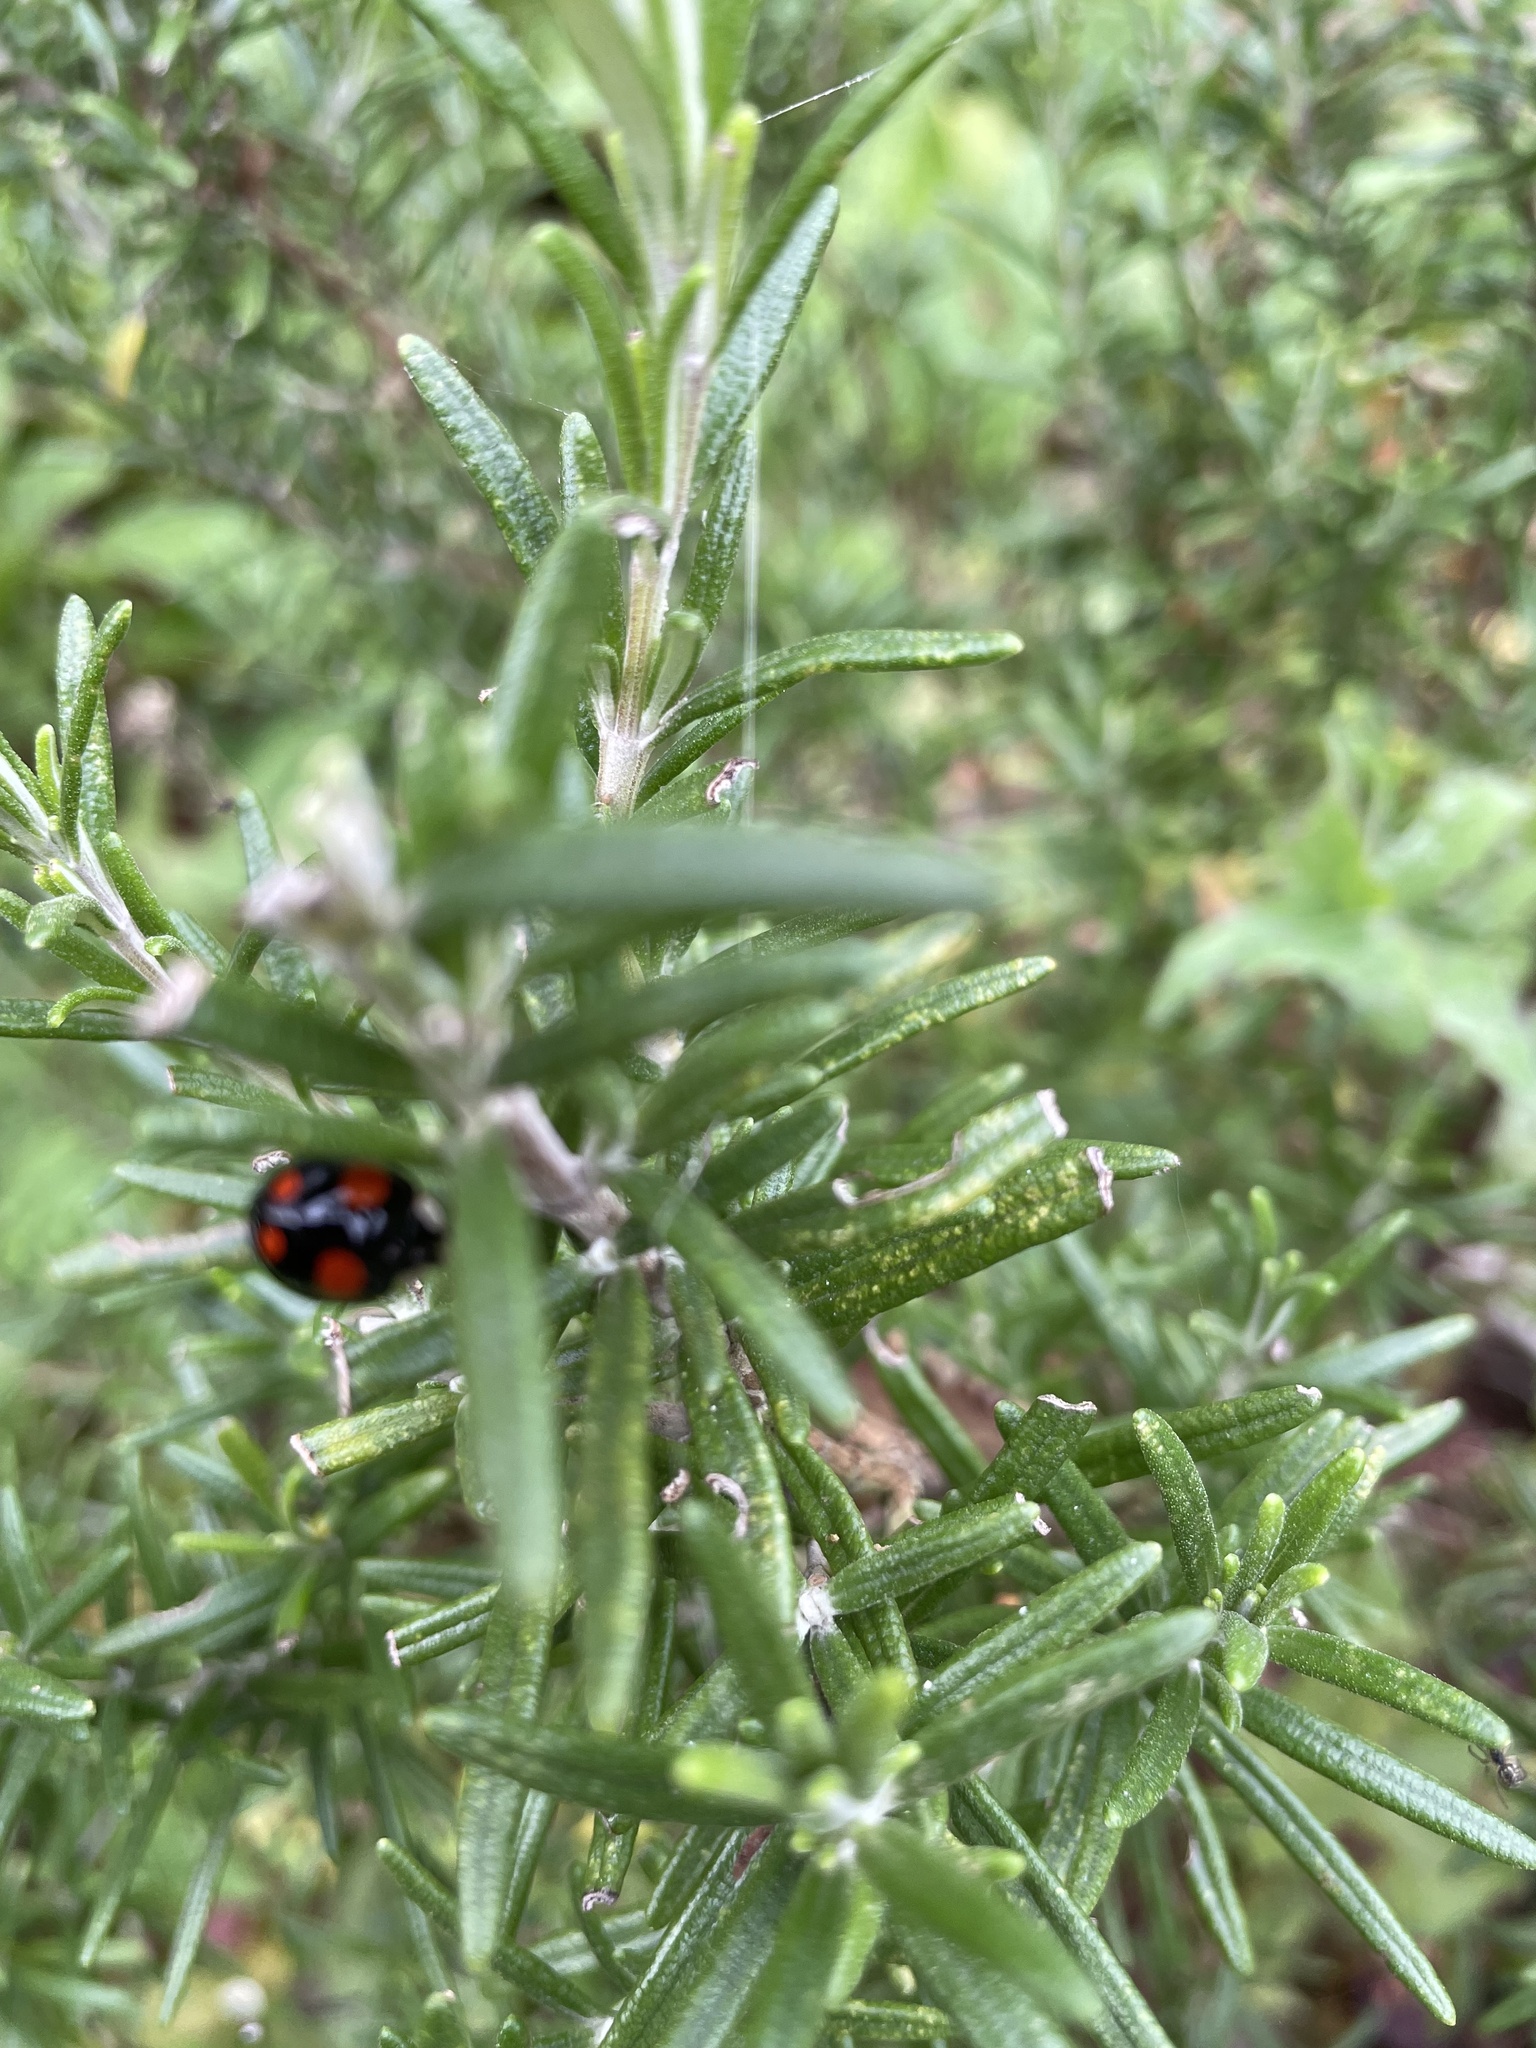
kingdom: Animalia
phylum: Arthropoda
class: Insecta
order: Coleoptera
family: Coccinellidae
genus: Harmonia
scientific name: Harmonia axyridis
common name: Harlequin ladybird
